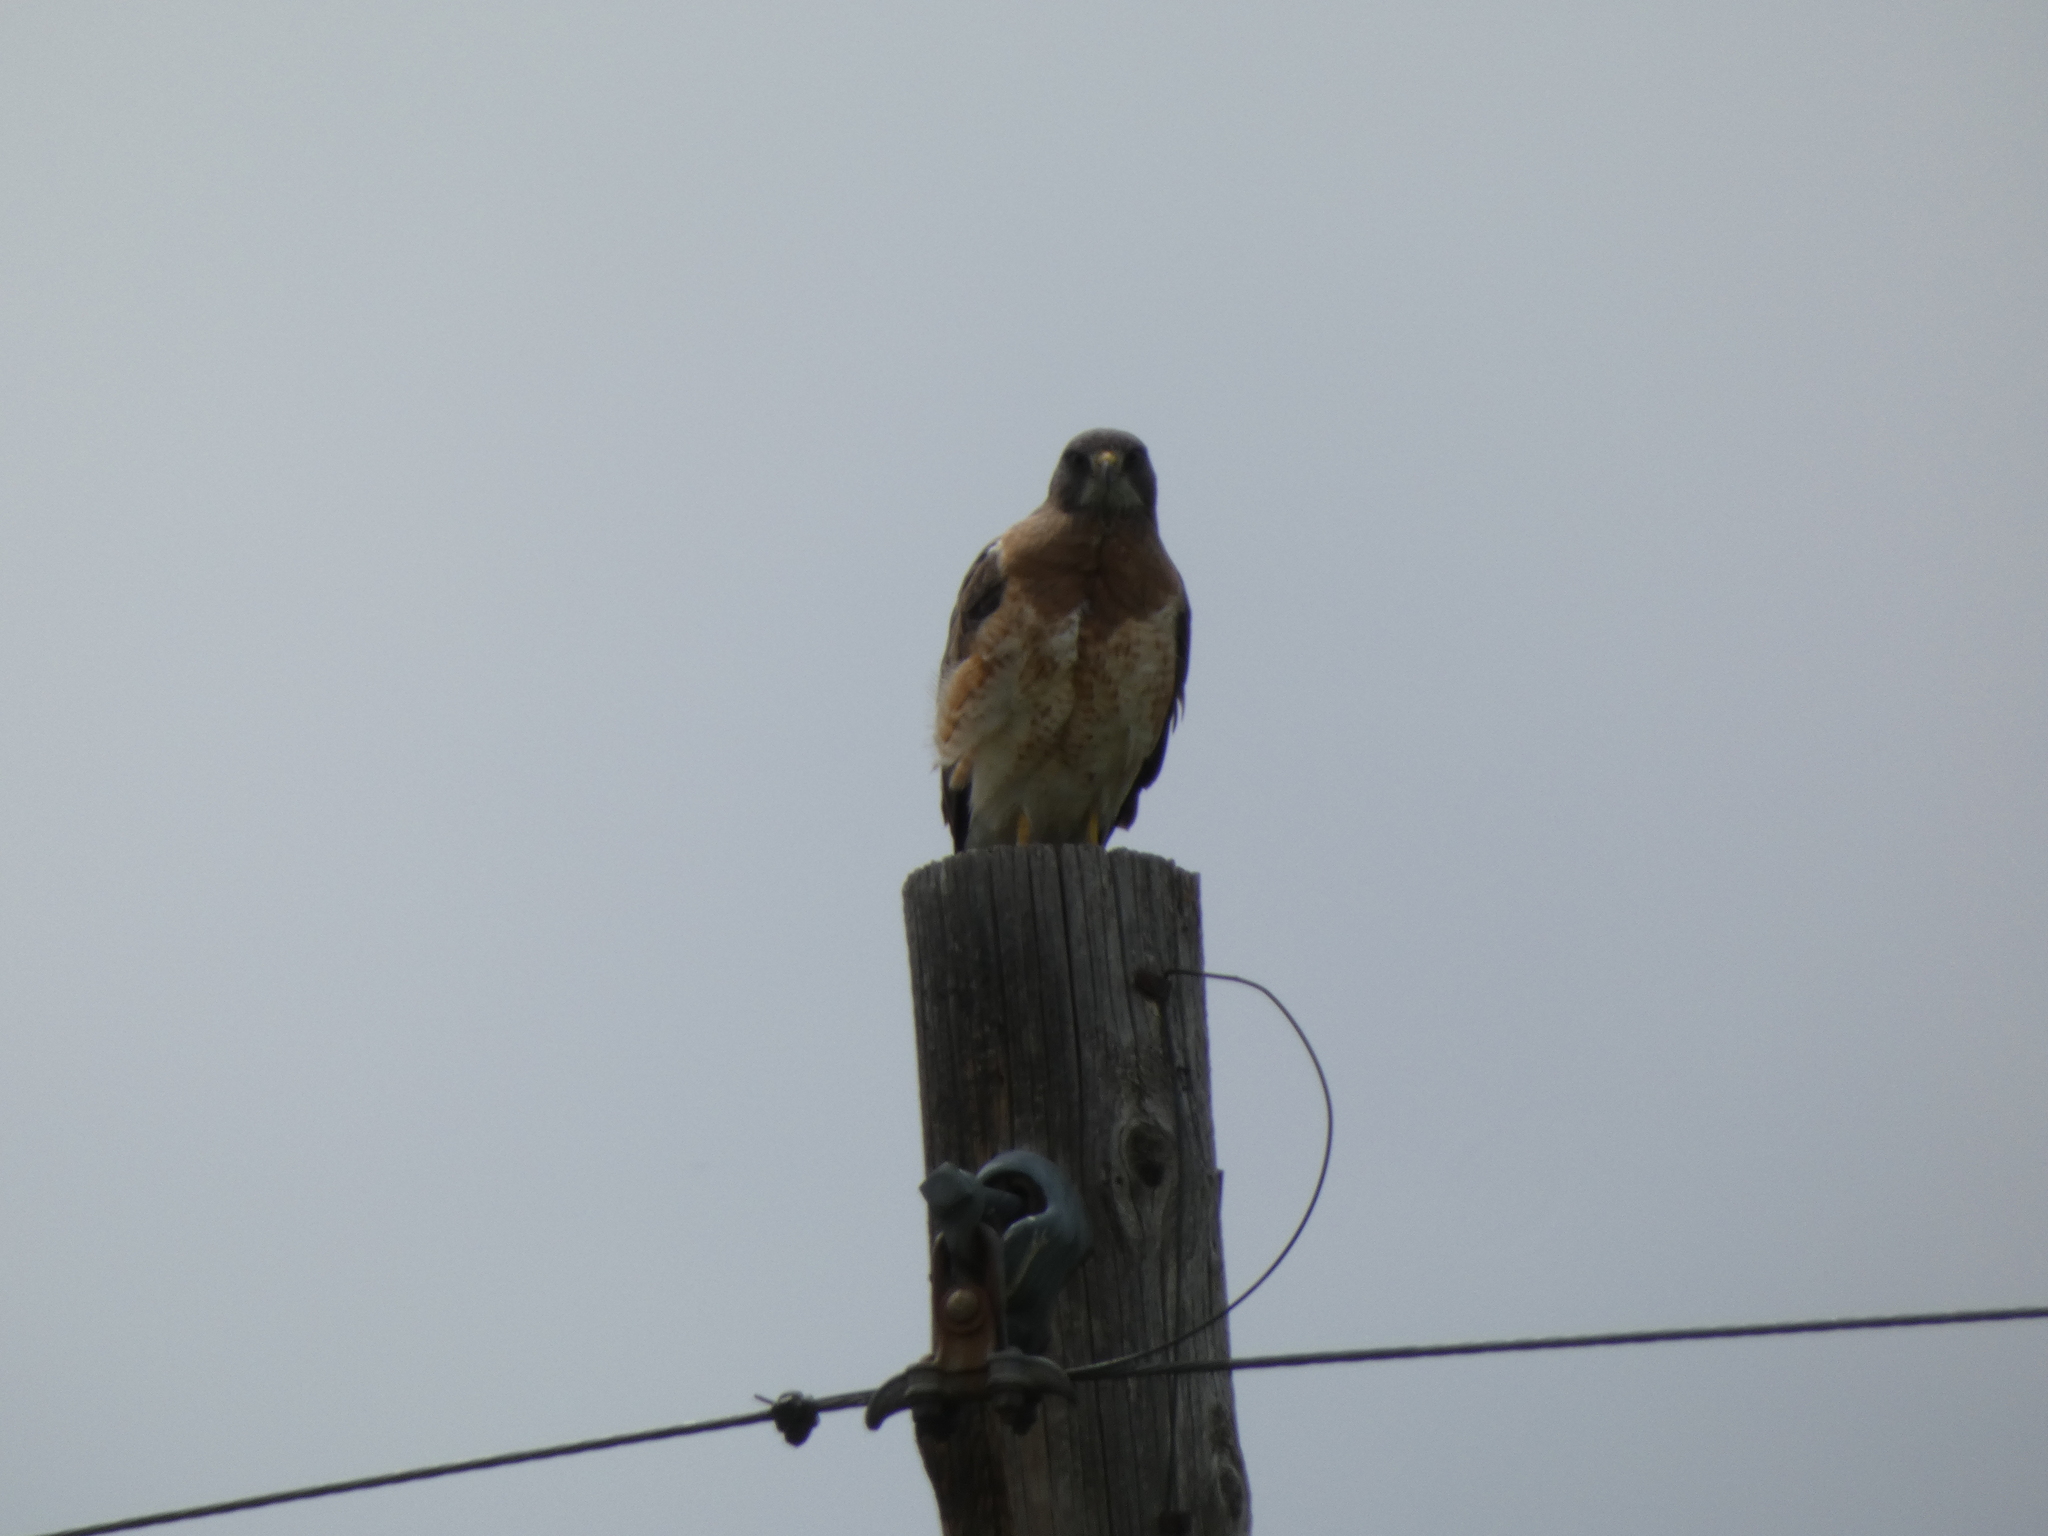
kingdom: Animalia
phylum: Chordata
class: Aves
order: Accipitriformes
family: Accipitridae
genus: Buteo
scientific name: Buteo swainsoni
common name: Swainson's hawk
